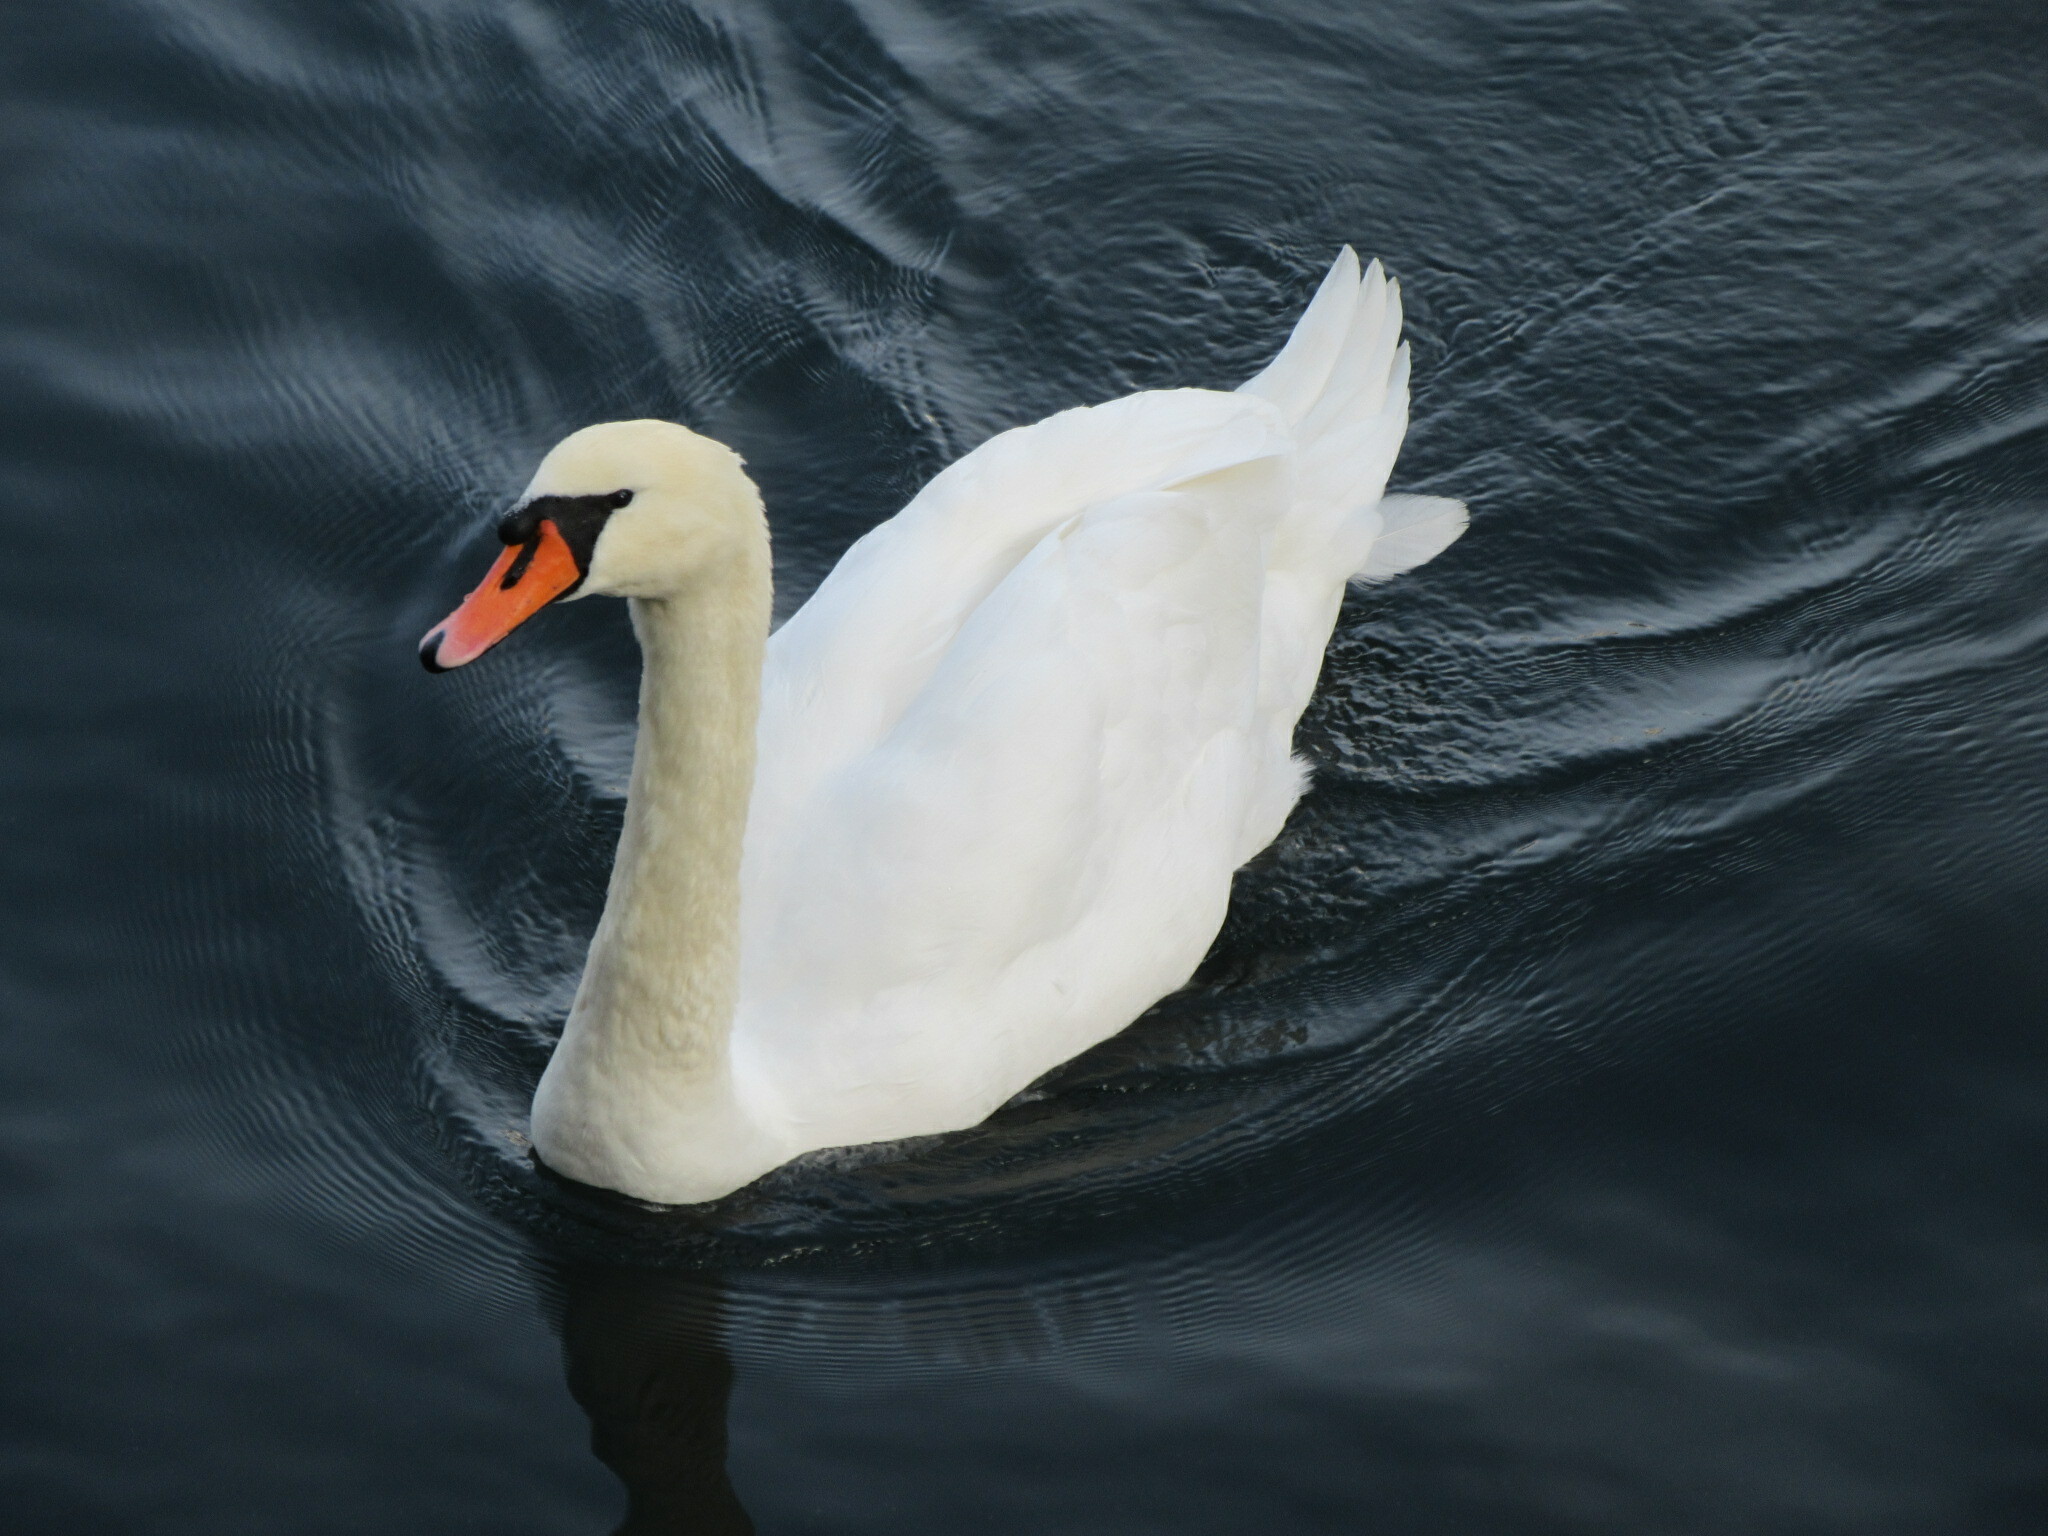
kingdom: Animalia
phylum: Chordata
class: Aves
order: Anseriformes
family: Anatidae
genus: Cygnus
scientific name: Cygnus olor
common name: Mute swan
